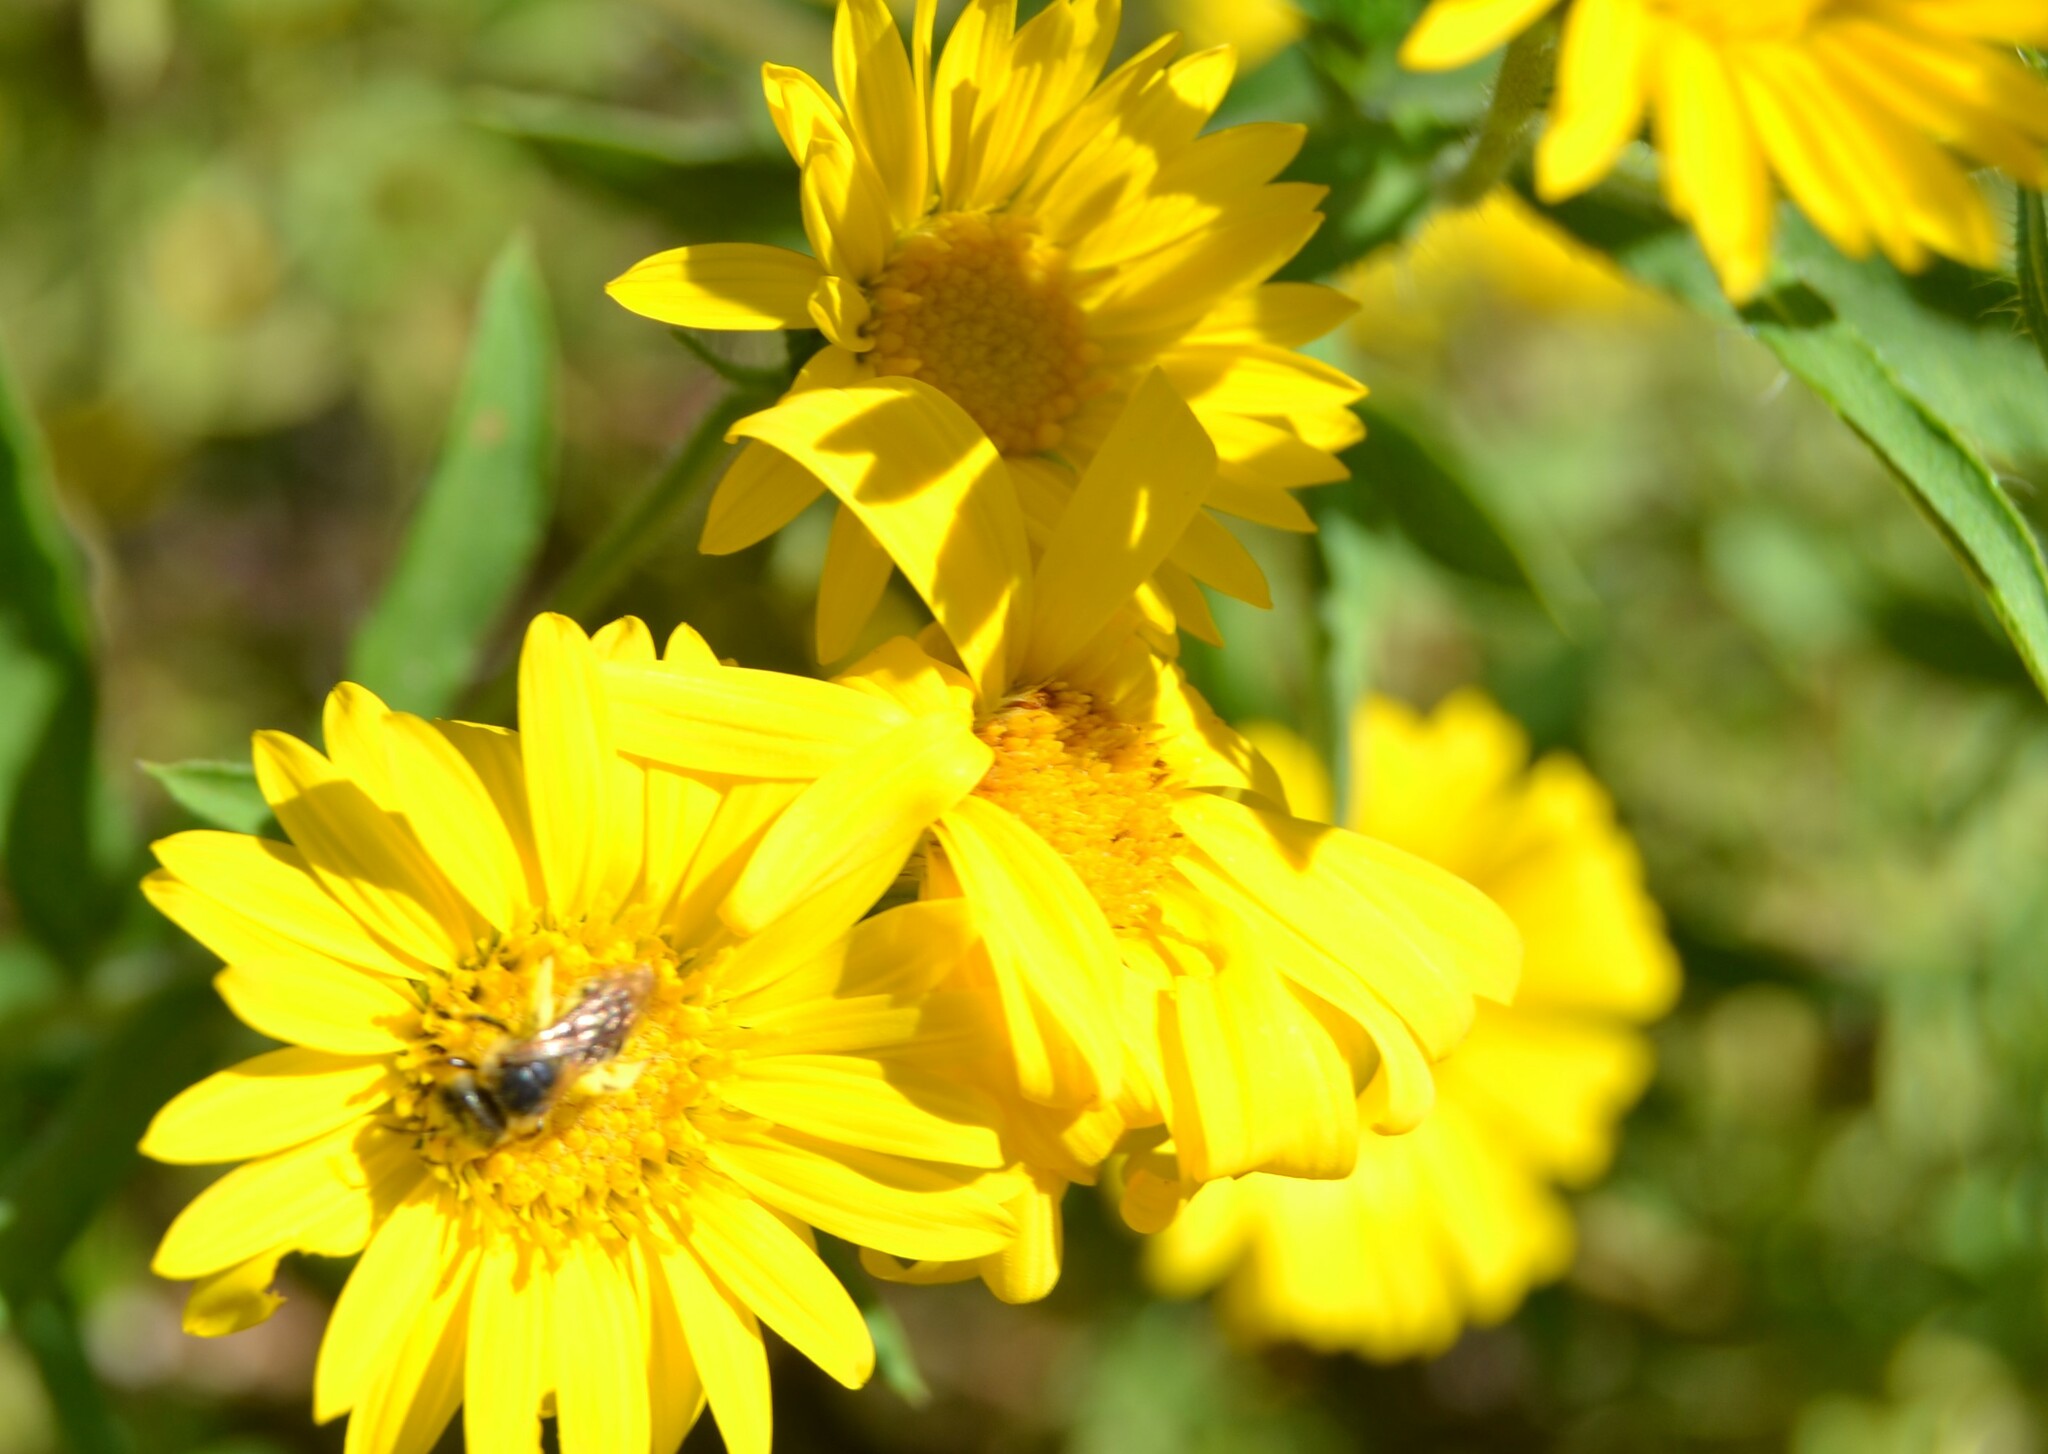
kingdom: Animalia
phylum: Arthropoda
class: Insecta
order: Hymenoptera
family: Halictidae
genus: Halictus
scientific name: Halictus ligatus
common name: Ligated furrow bee
